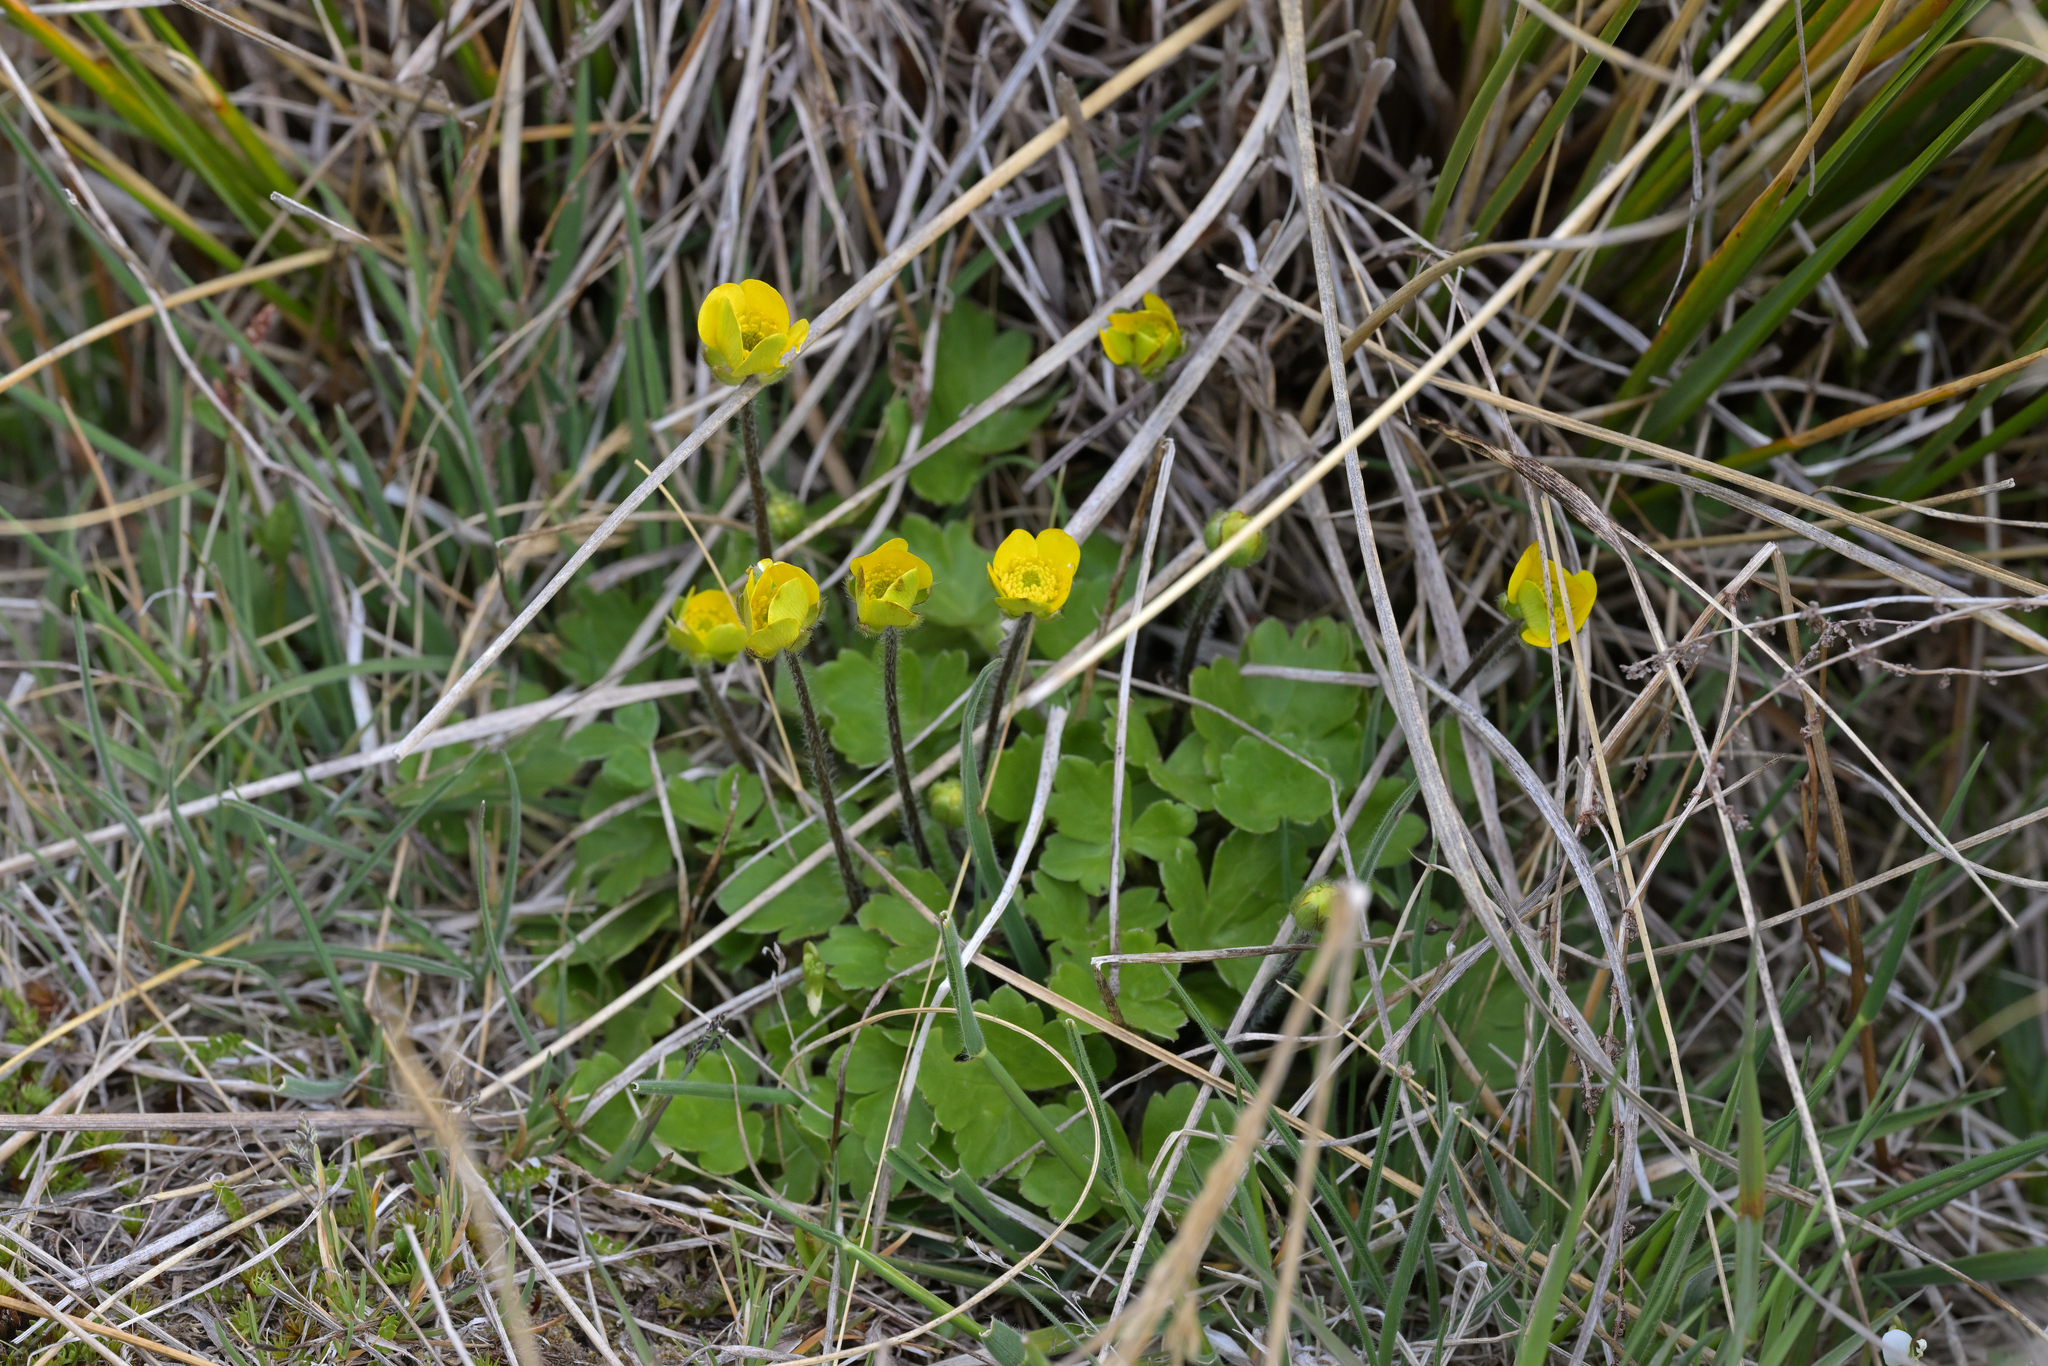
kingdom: Plantae
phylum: Tracheophyta
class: Magnoliopsida
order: Ranunculales
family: Ranunculaceae
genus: Ranunculus
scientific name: Ranunculus multiscapus
